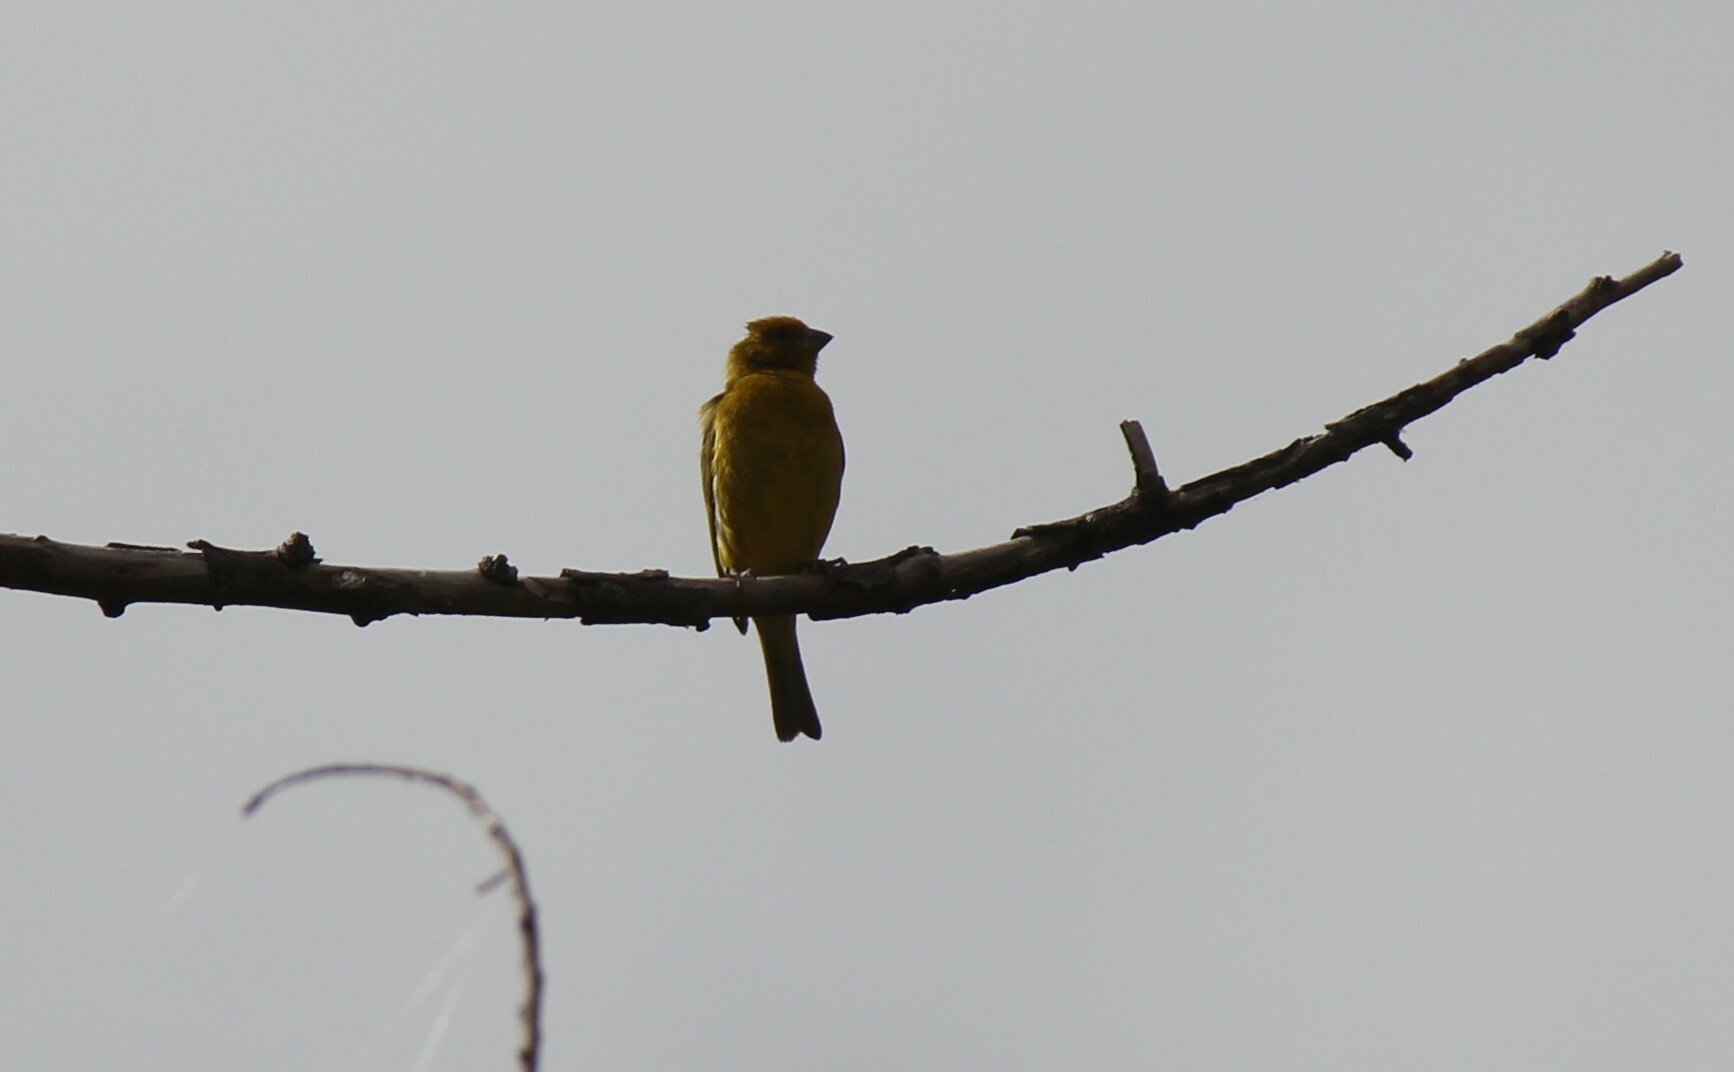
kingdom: Animalia
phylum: Chordata
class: Aves
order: Passeriformes
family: Thraupidae
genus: Sicalis
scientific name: Sicalis flaveola
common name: Saffron finch
